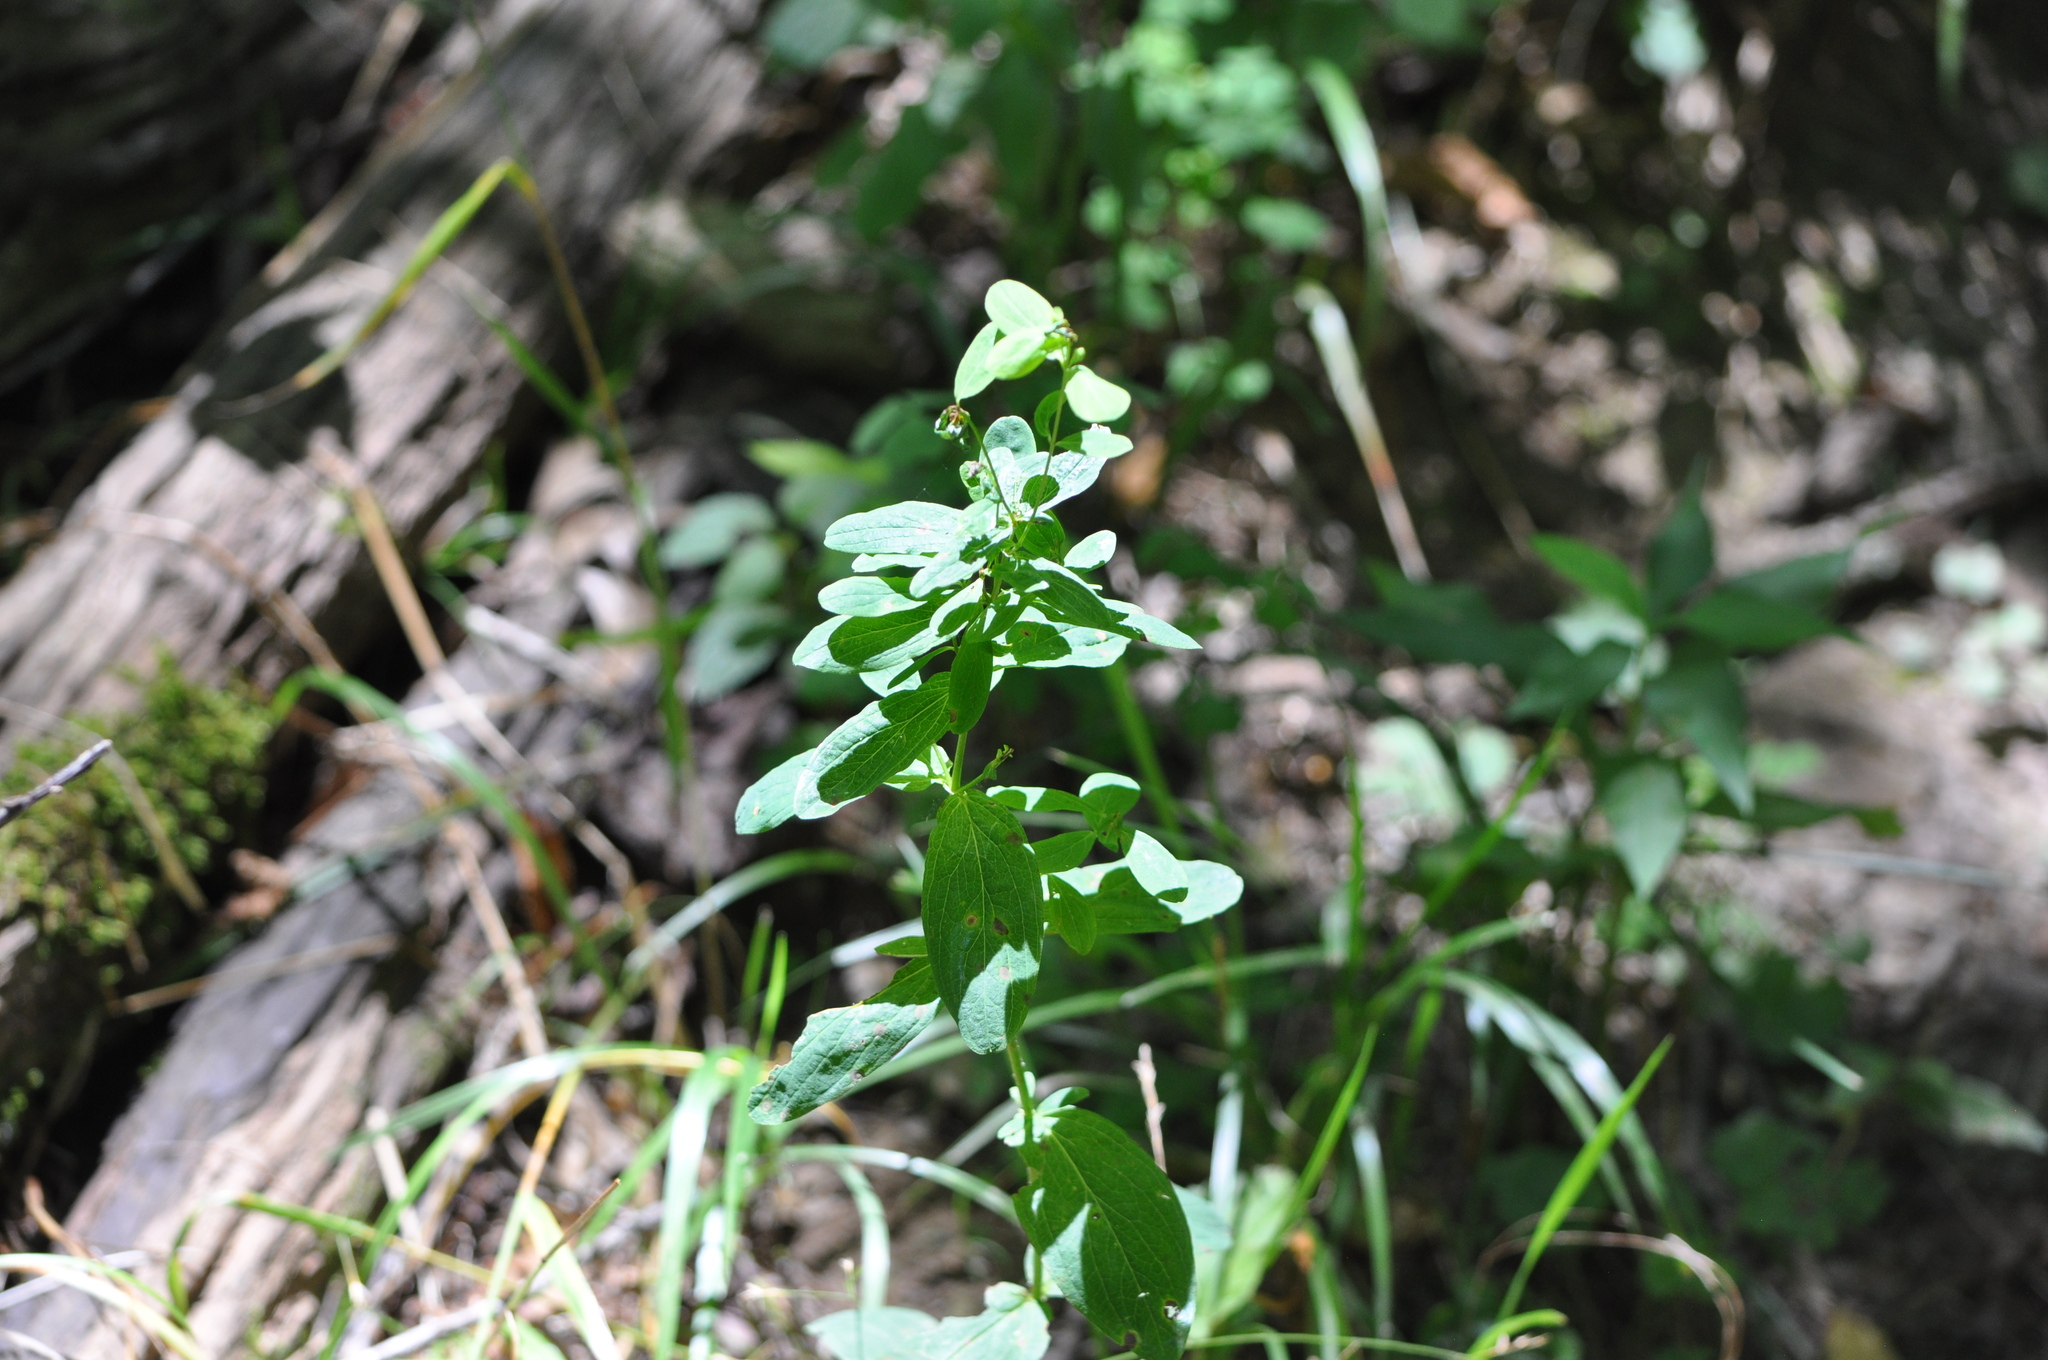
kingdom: Plantae
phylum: Tracheophyta
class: Magnoliopsida
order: Asterales
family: Campanulaceae
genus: Lobelia
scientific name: Lobelia inflata
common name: Indian tobacco
